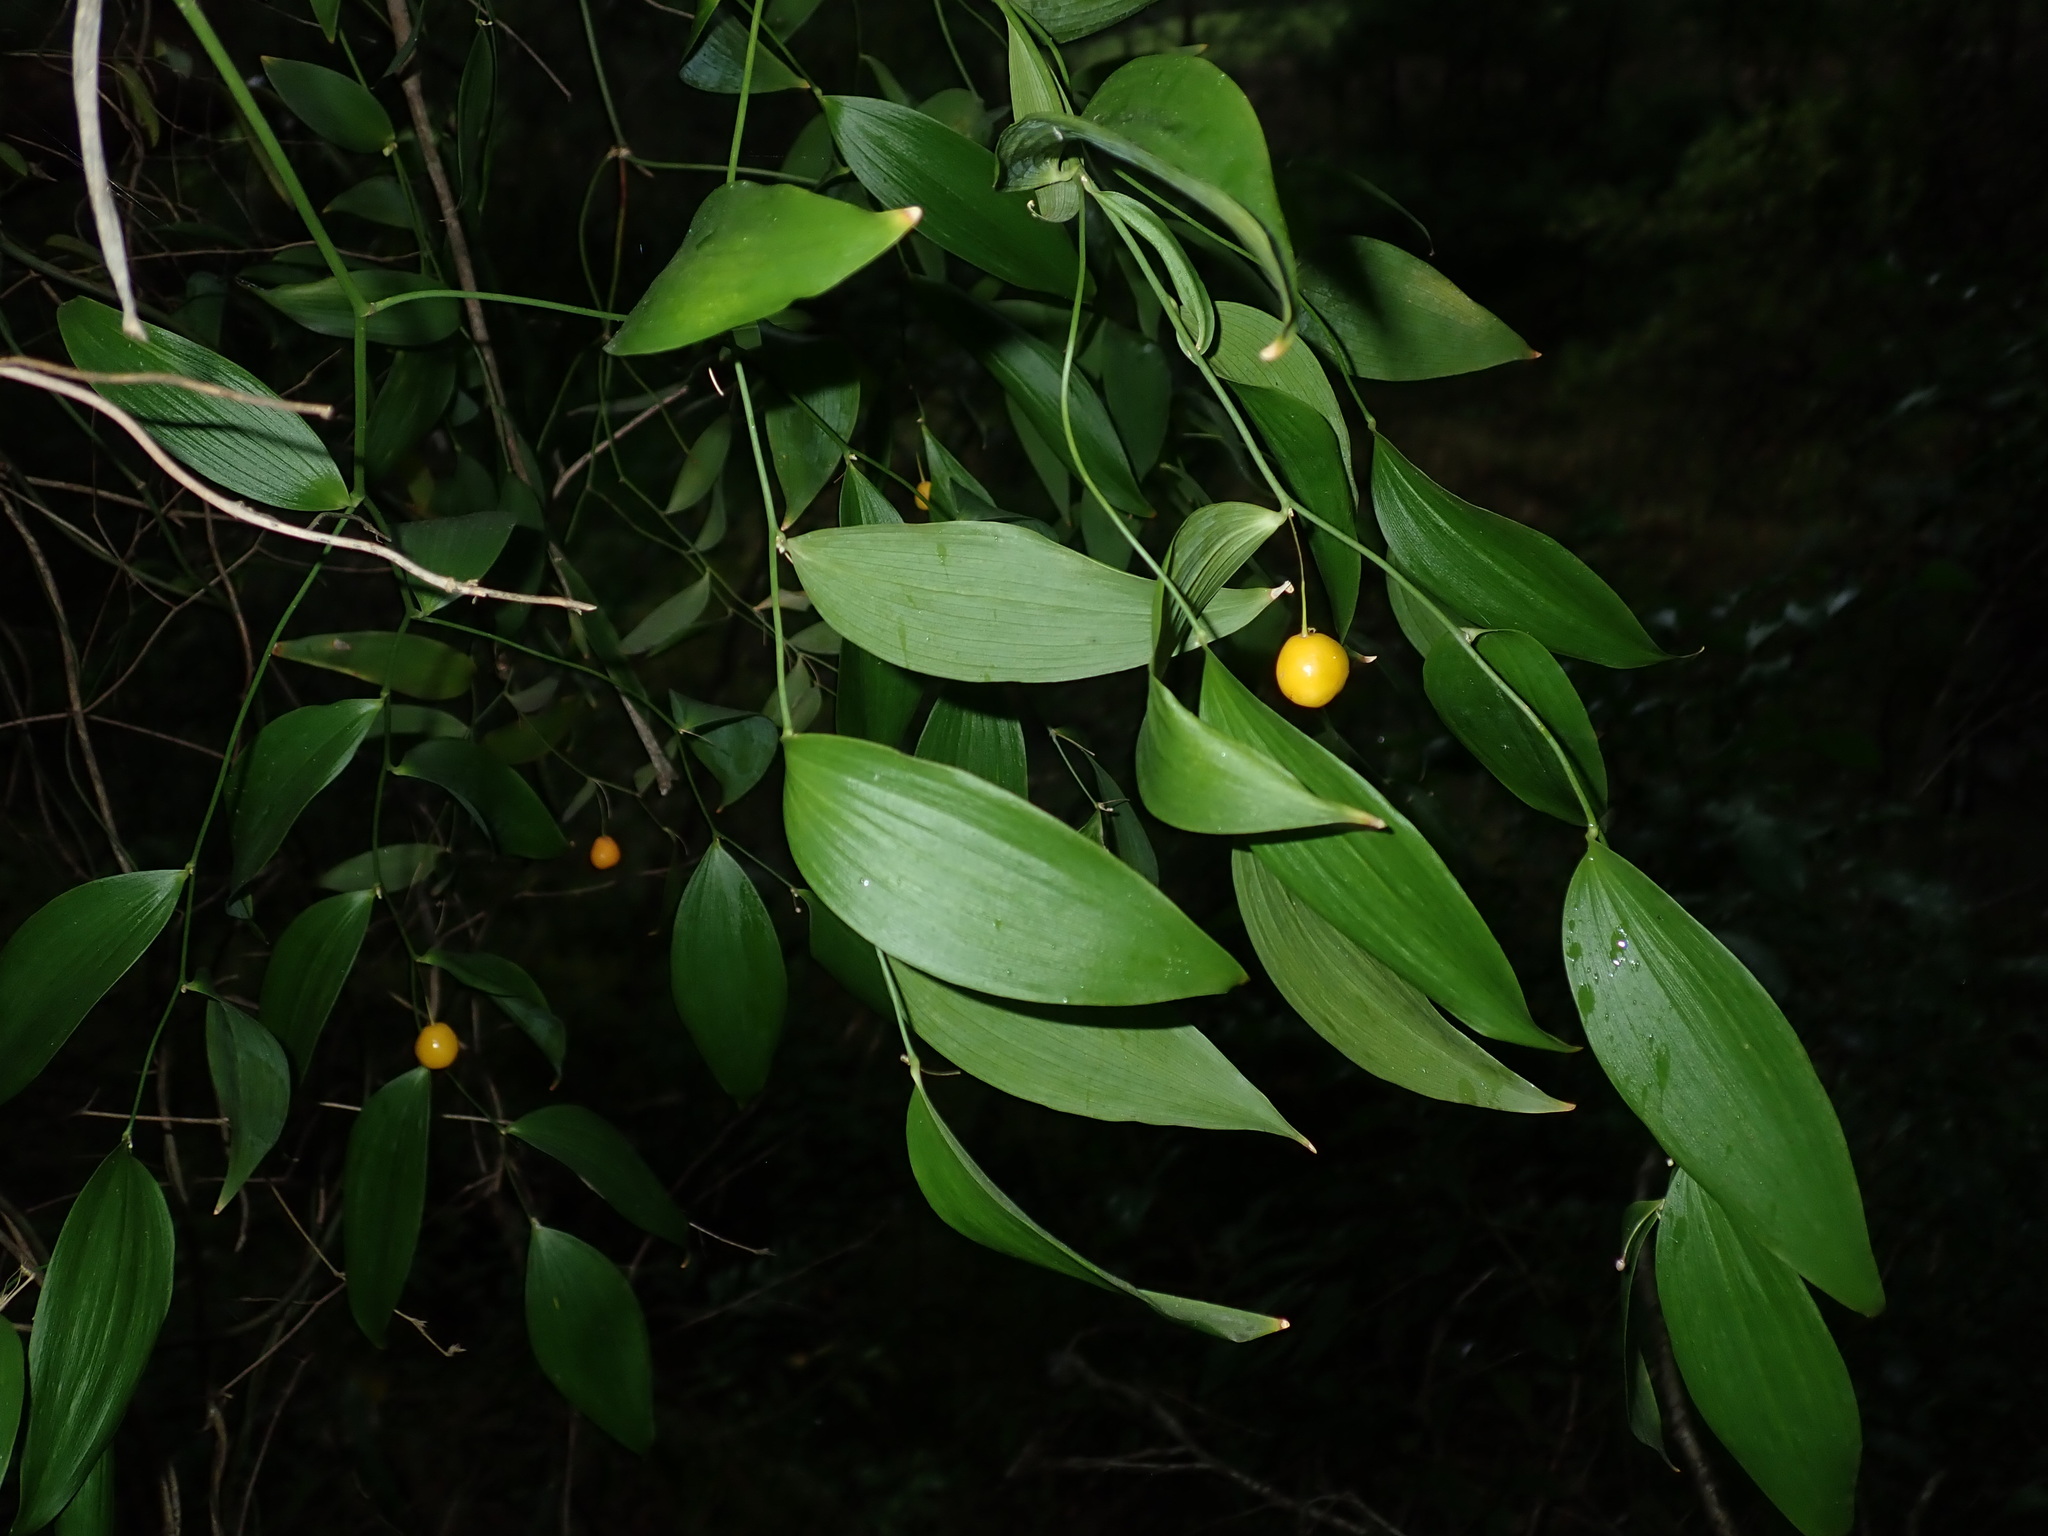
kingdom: Plantae
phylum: Tracheophyta
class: Liliopsida
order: Asparagales
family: Asparagaceae
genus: Eustrephus
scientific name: Eustrephus latifolius
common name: Orangevine
